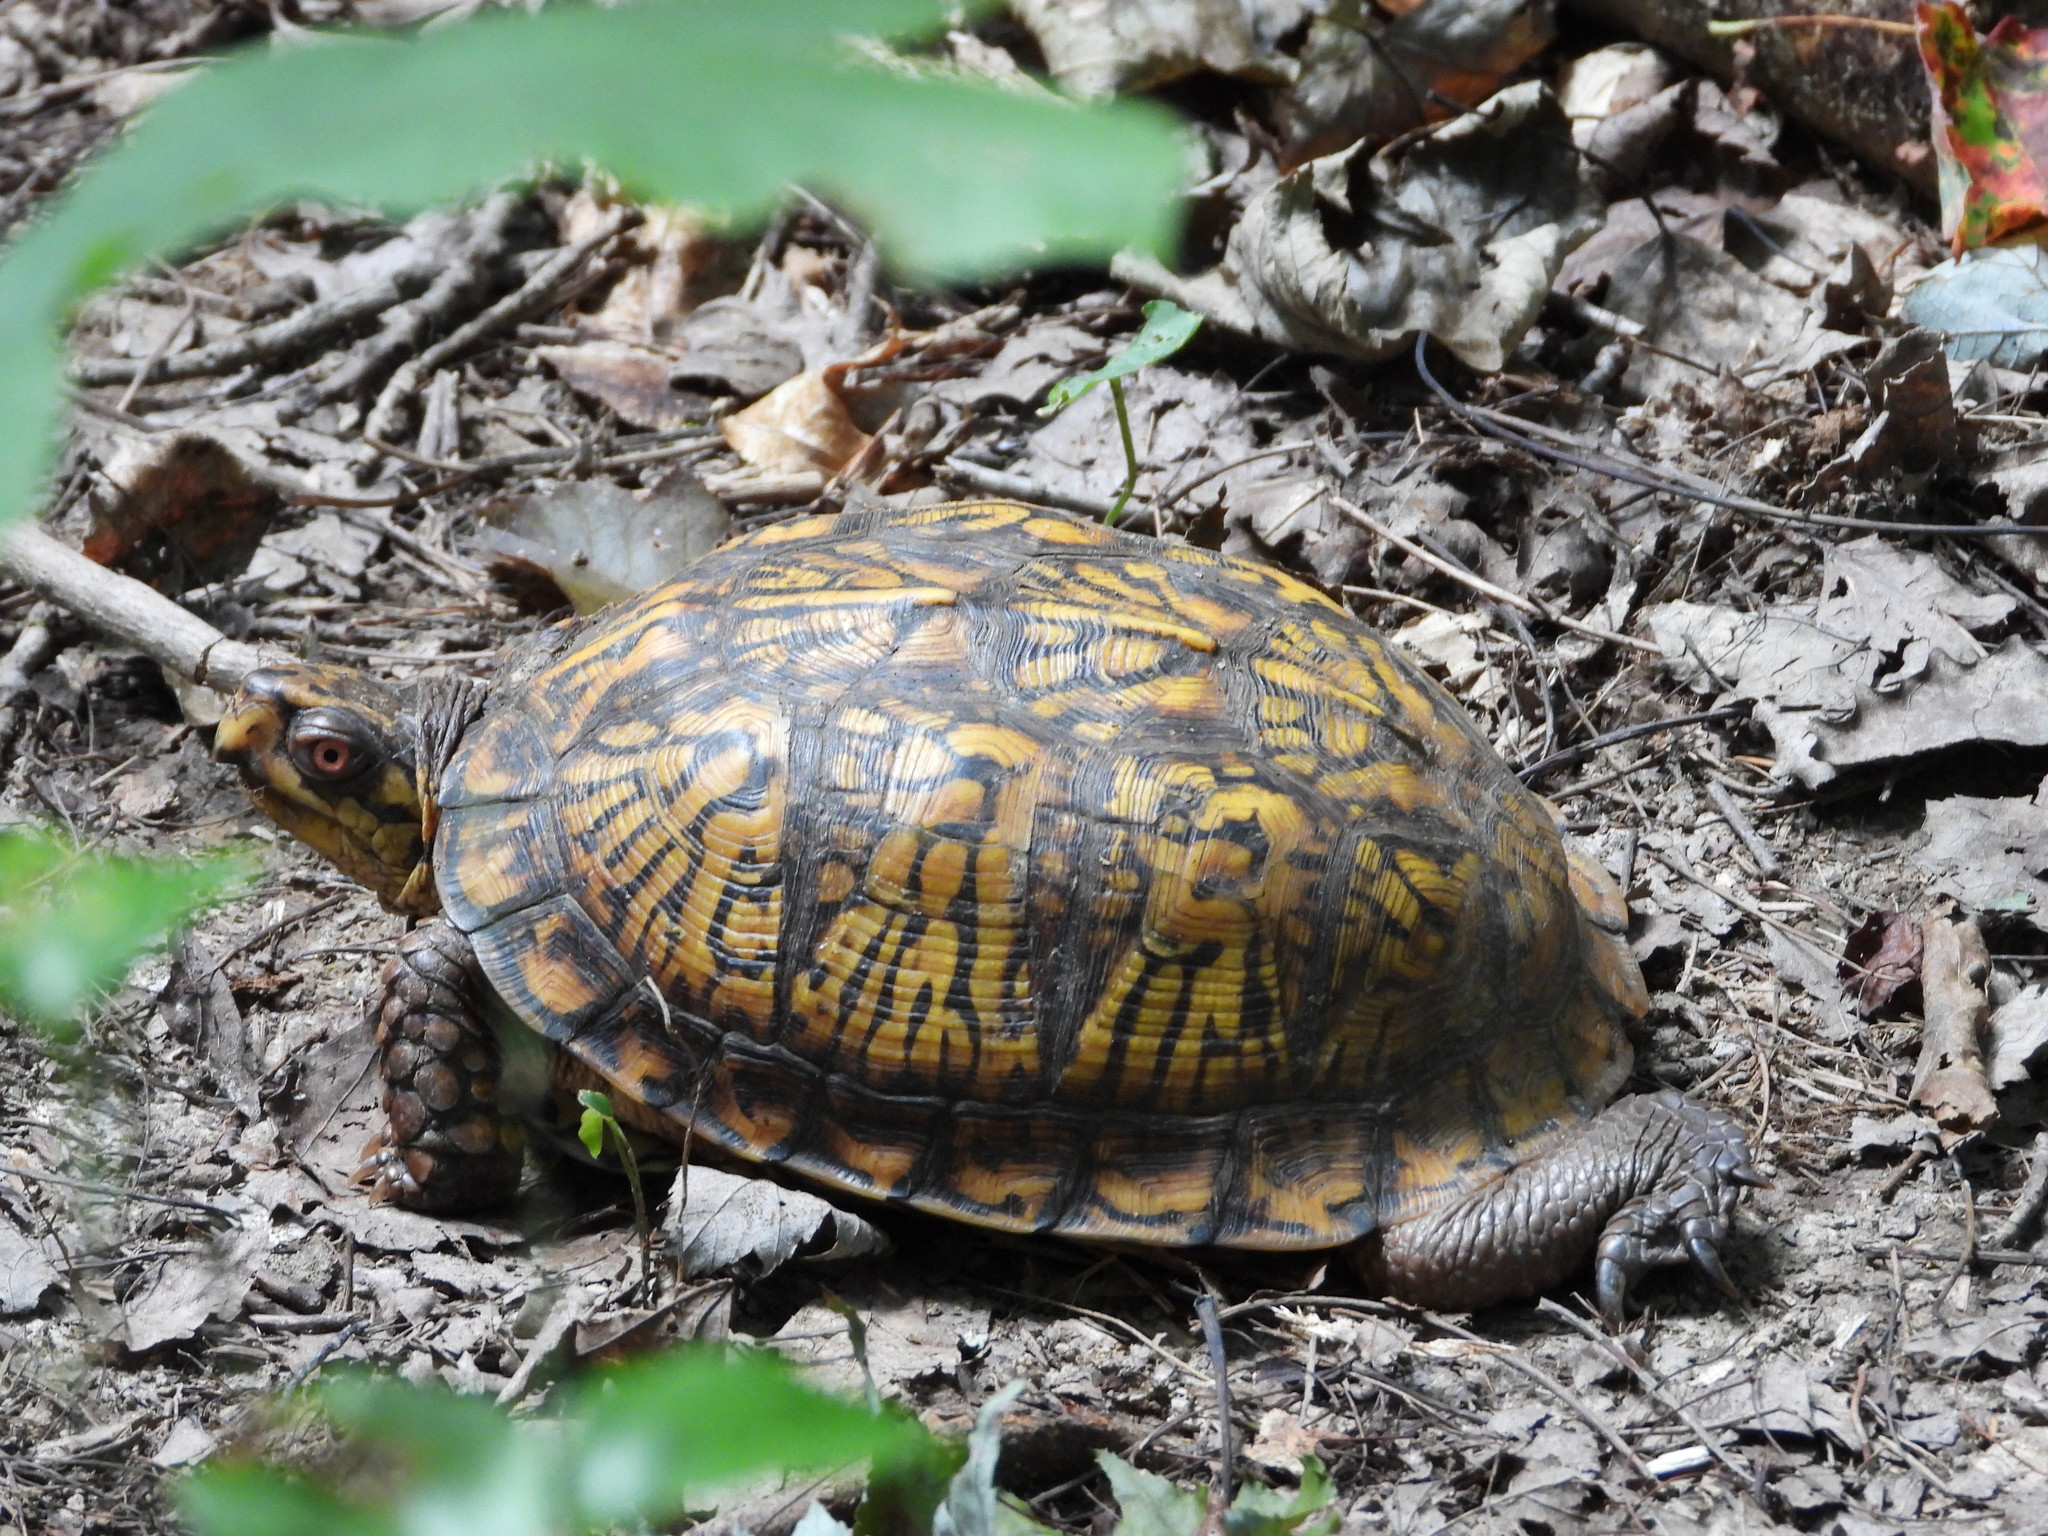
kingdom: Animalia
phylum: Chordata
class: Testudines
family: Emydidae
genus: Terrapene
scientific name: Terrapene carolina
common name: Common box turtle
